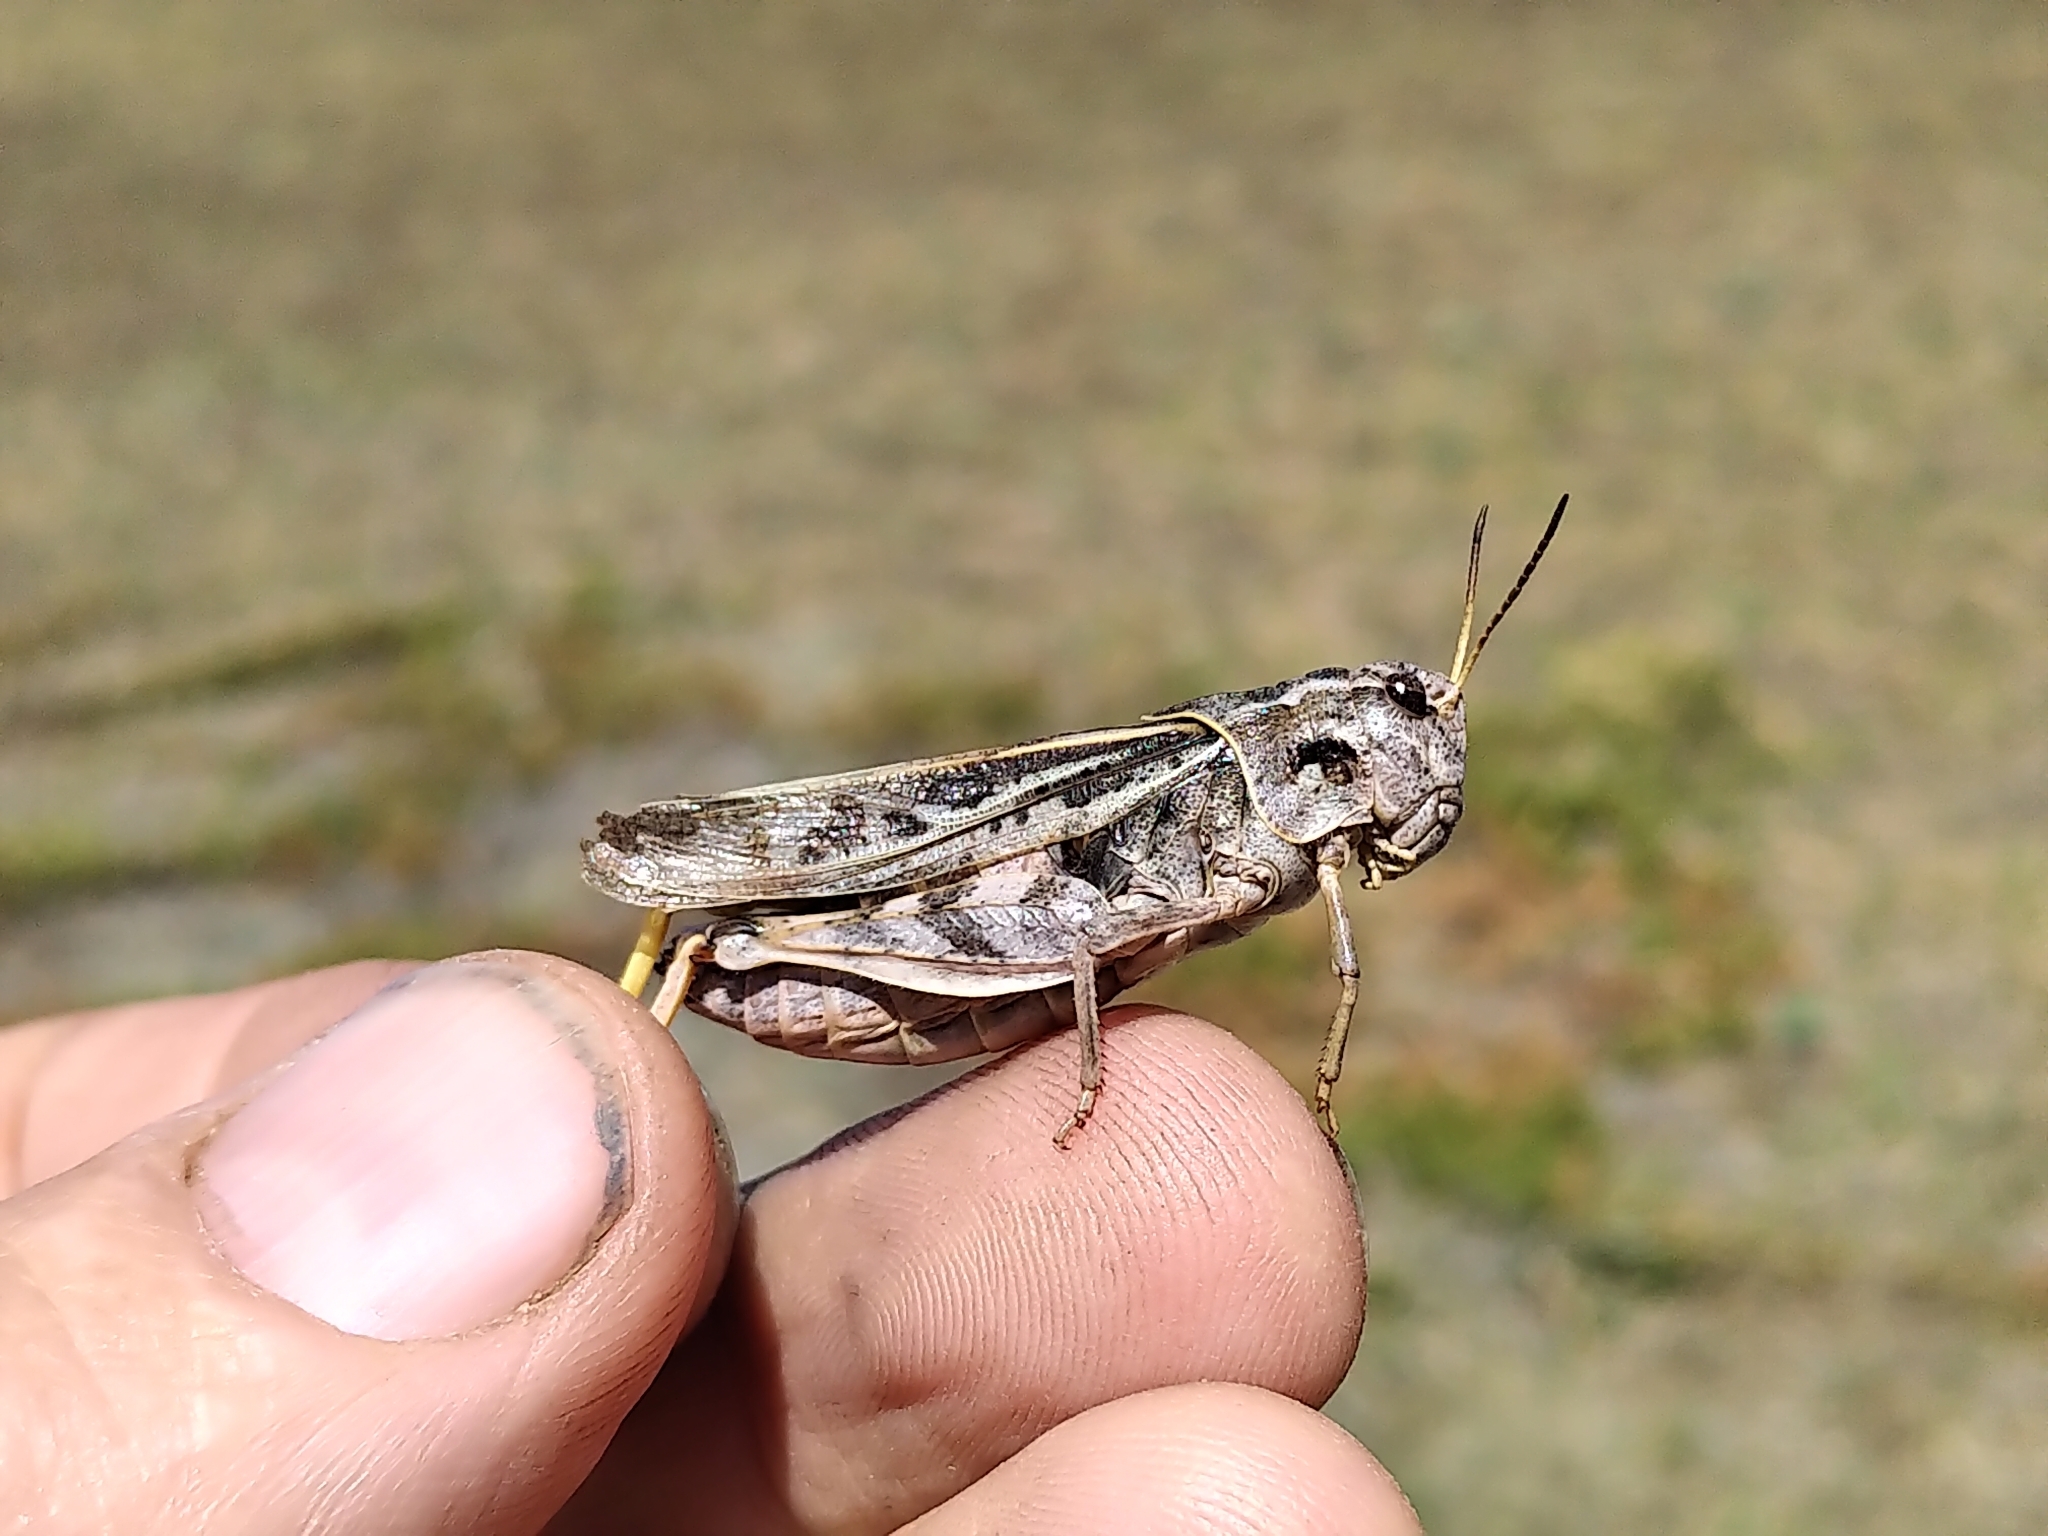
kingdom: Animalia
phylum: Arthropoda
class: Insecta
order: Orthoptera
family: Acrididae
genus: Pardalophora
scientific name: Pardalophora apiculata
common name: Coral-winged locust
